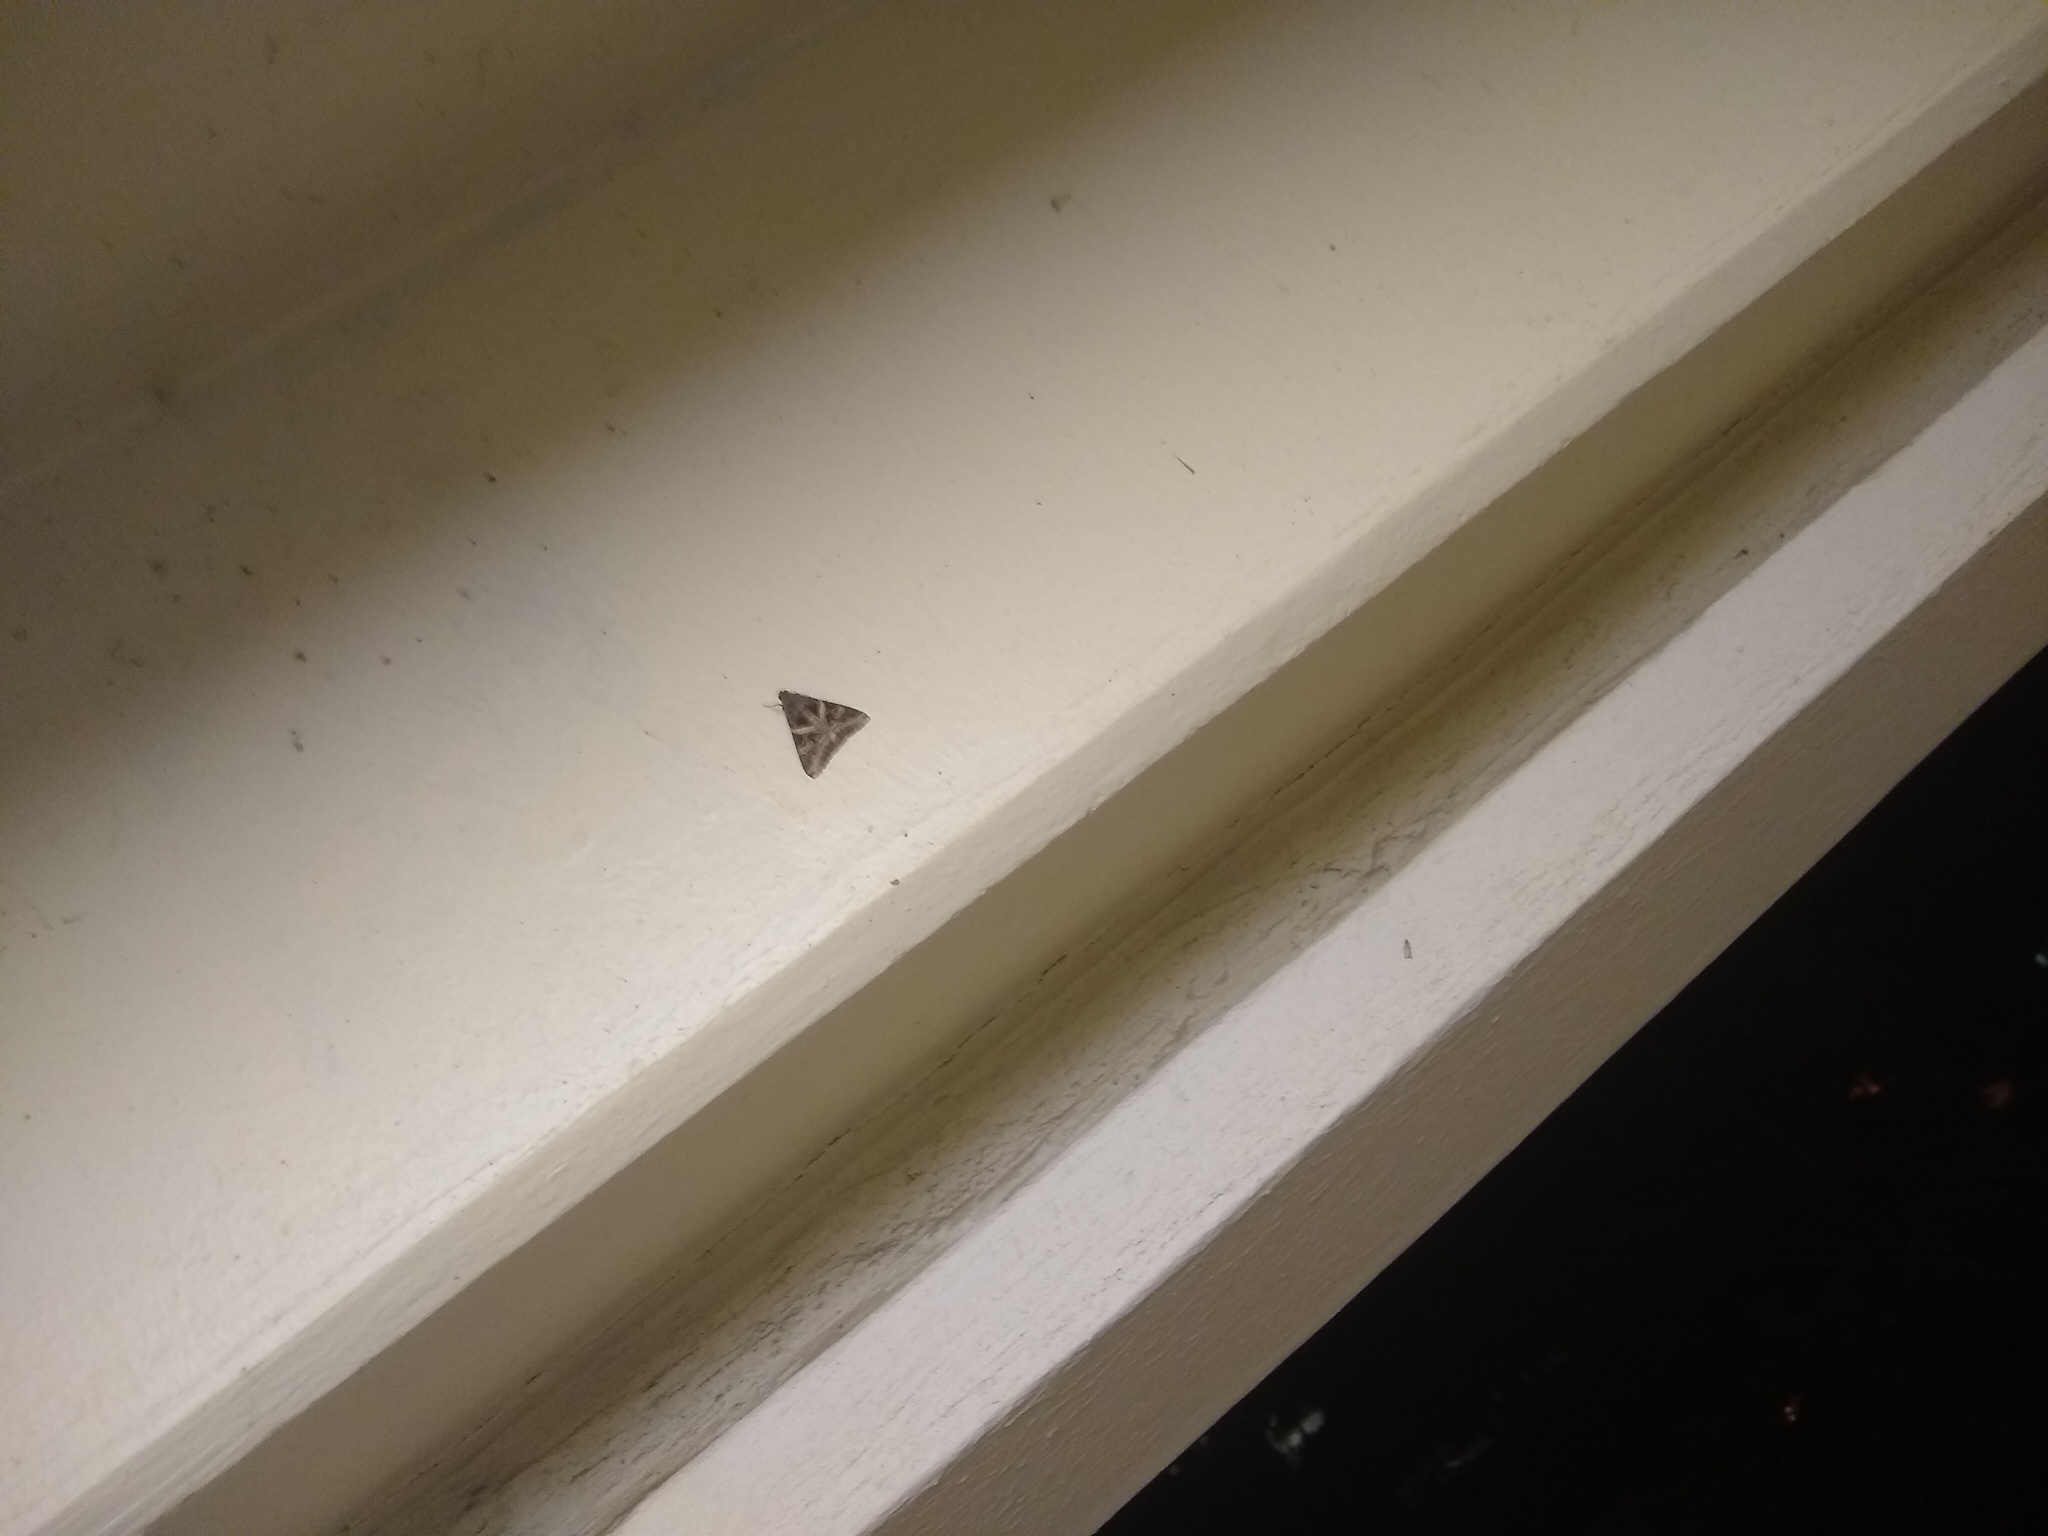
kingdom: Animalia
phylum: Arthropoda
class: Insecta
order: Lepidoptera
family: Erebidae
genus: Melipotis
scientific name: Melipotis indomita
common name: Moth
